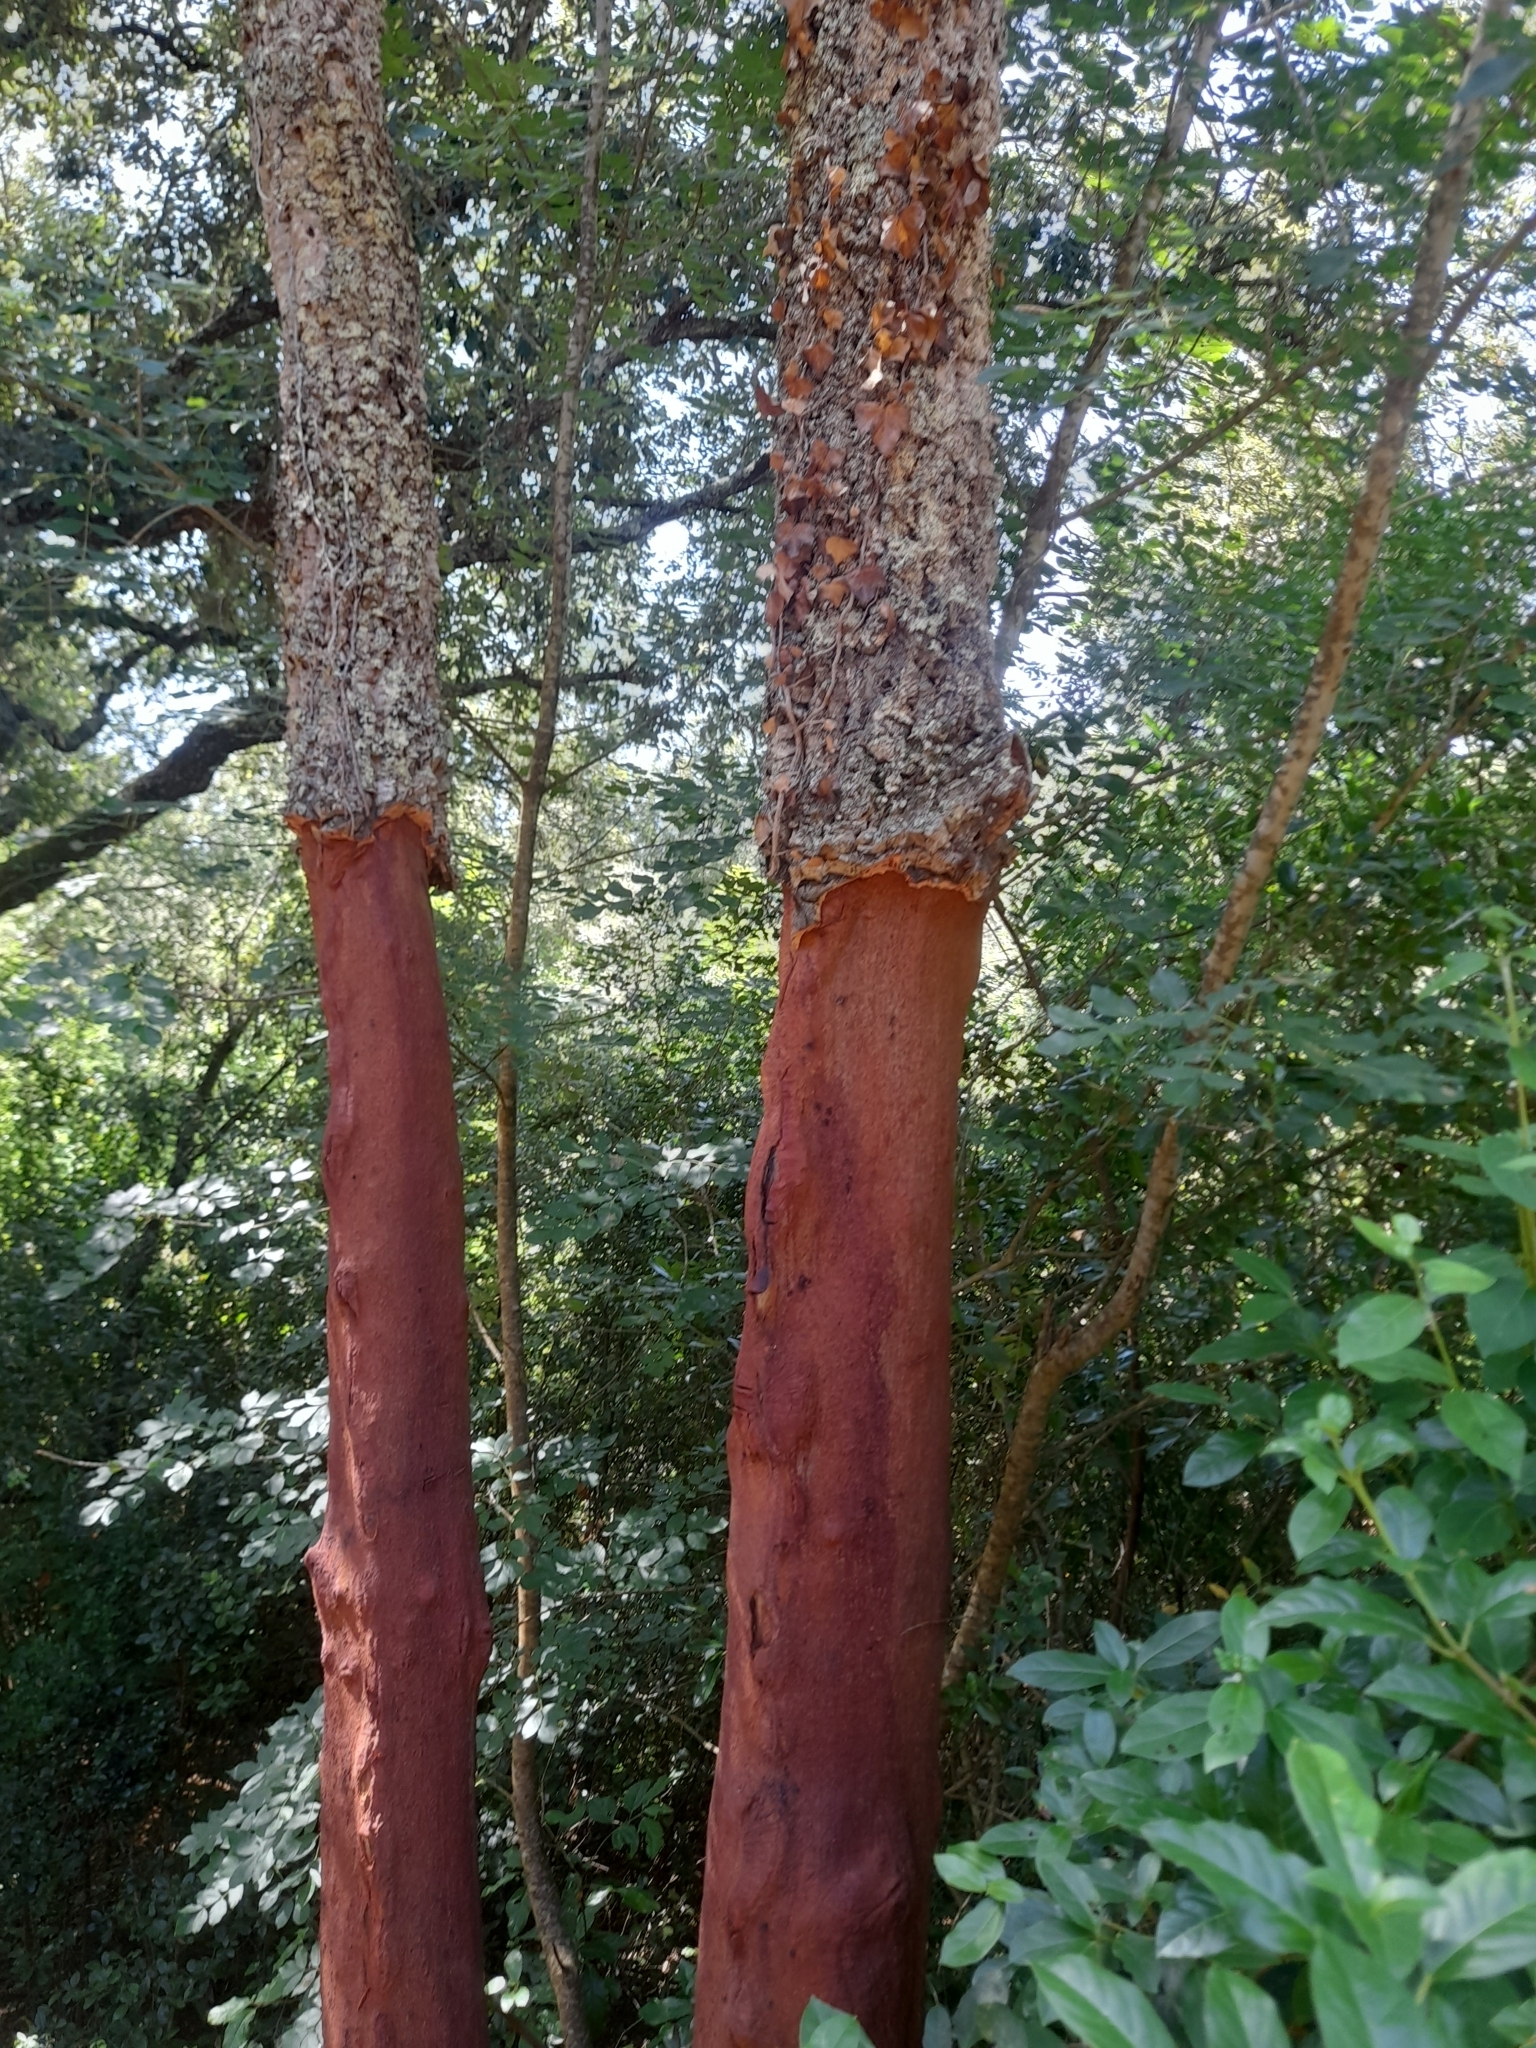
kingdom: Plantae
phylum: Tracheophyta
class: Magnoliopsida
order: Fagales
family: Fagaceae
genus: Quercus
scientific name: Quercus suber
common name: Cork oak
